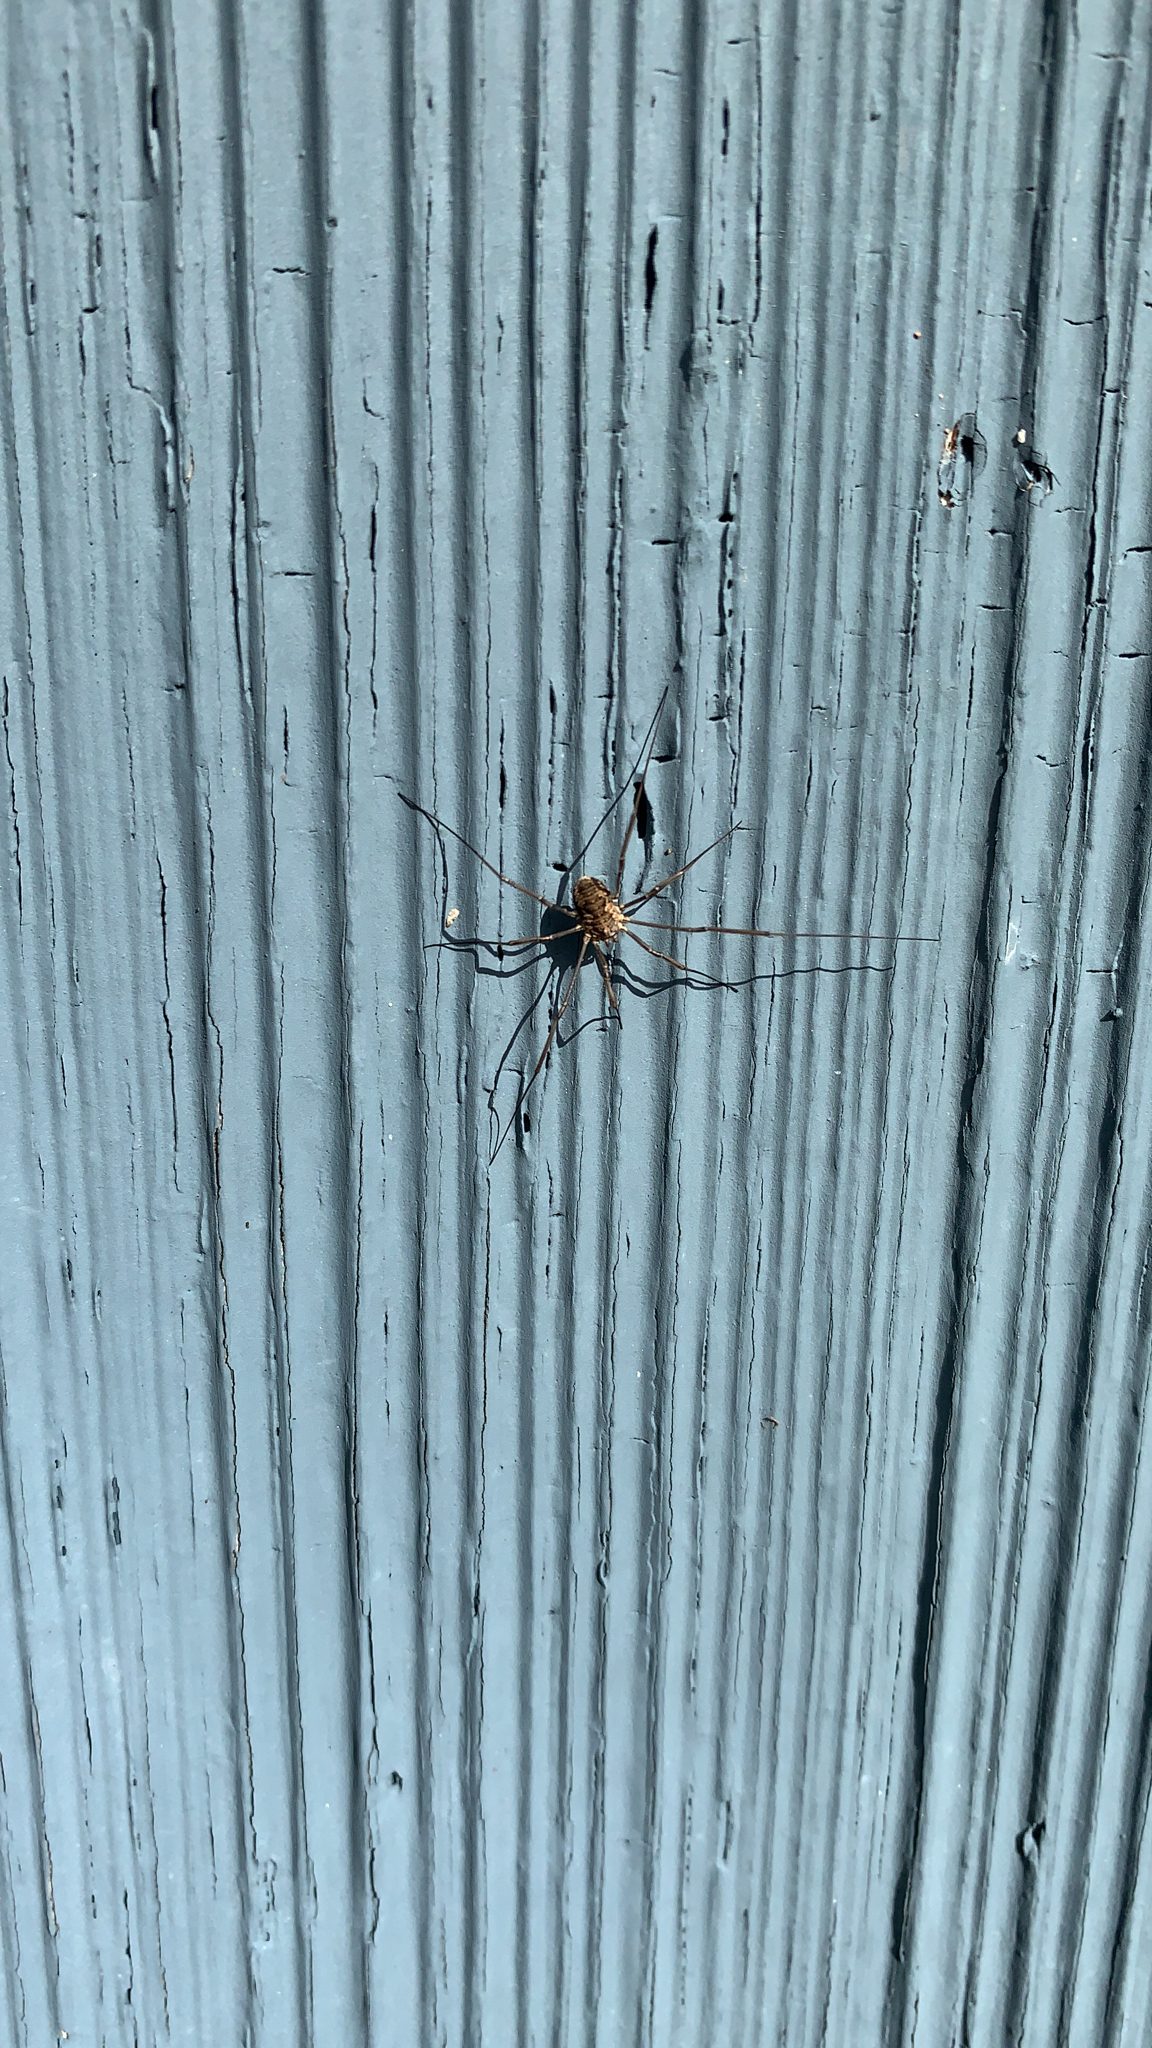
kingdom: Animalia
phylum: Arthropoda
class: Arachnida
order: Opiliones
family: Phalangiidae
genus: Phalangium
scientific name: Phalangium opilio
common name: Daddy longleg
